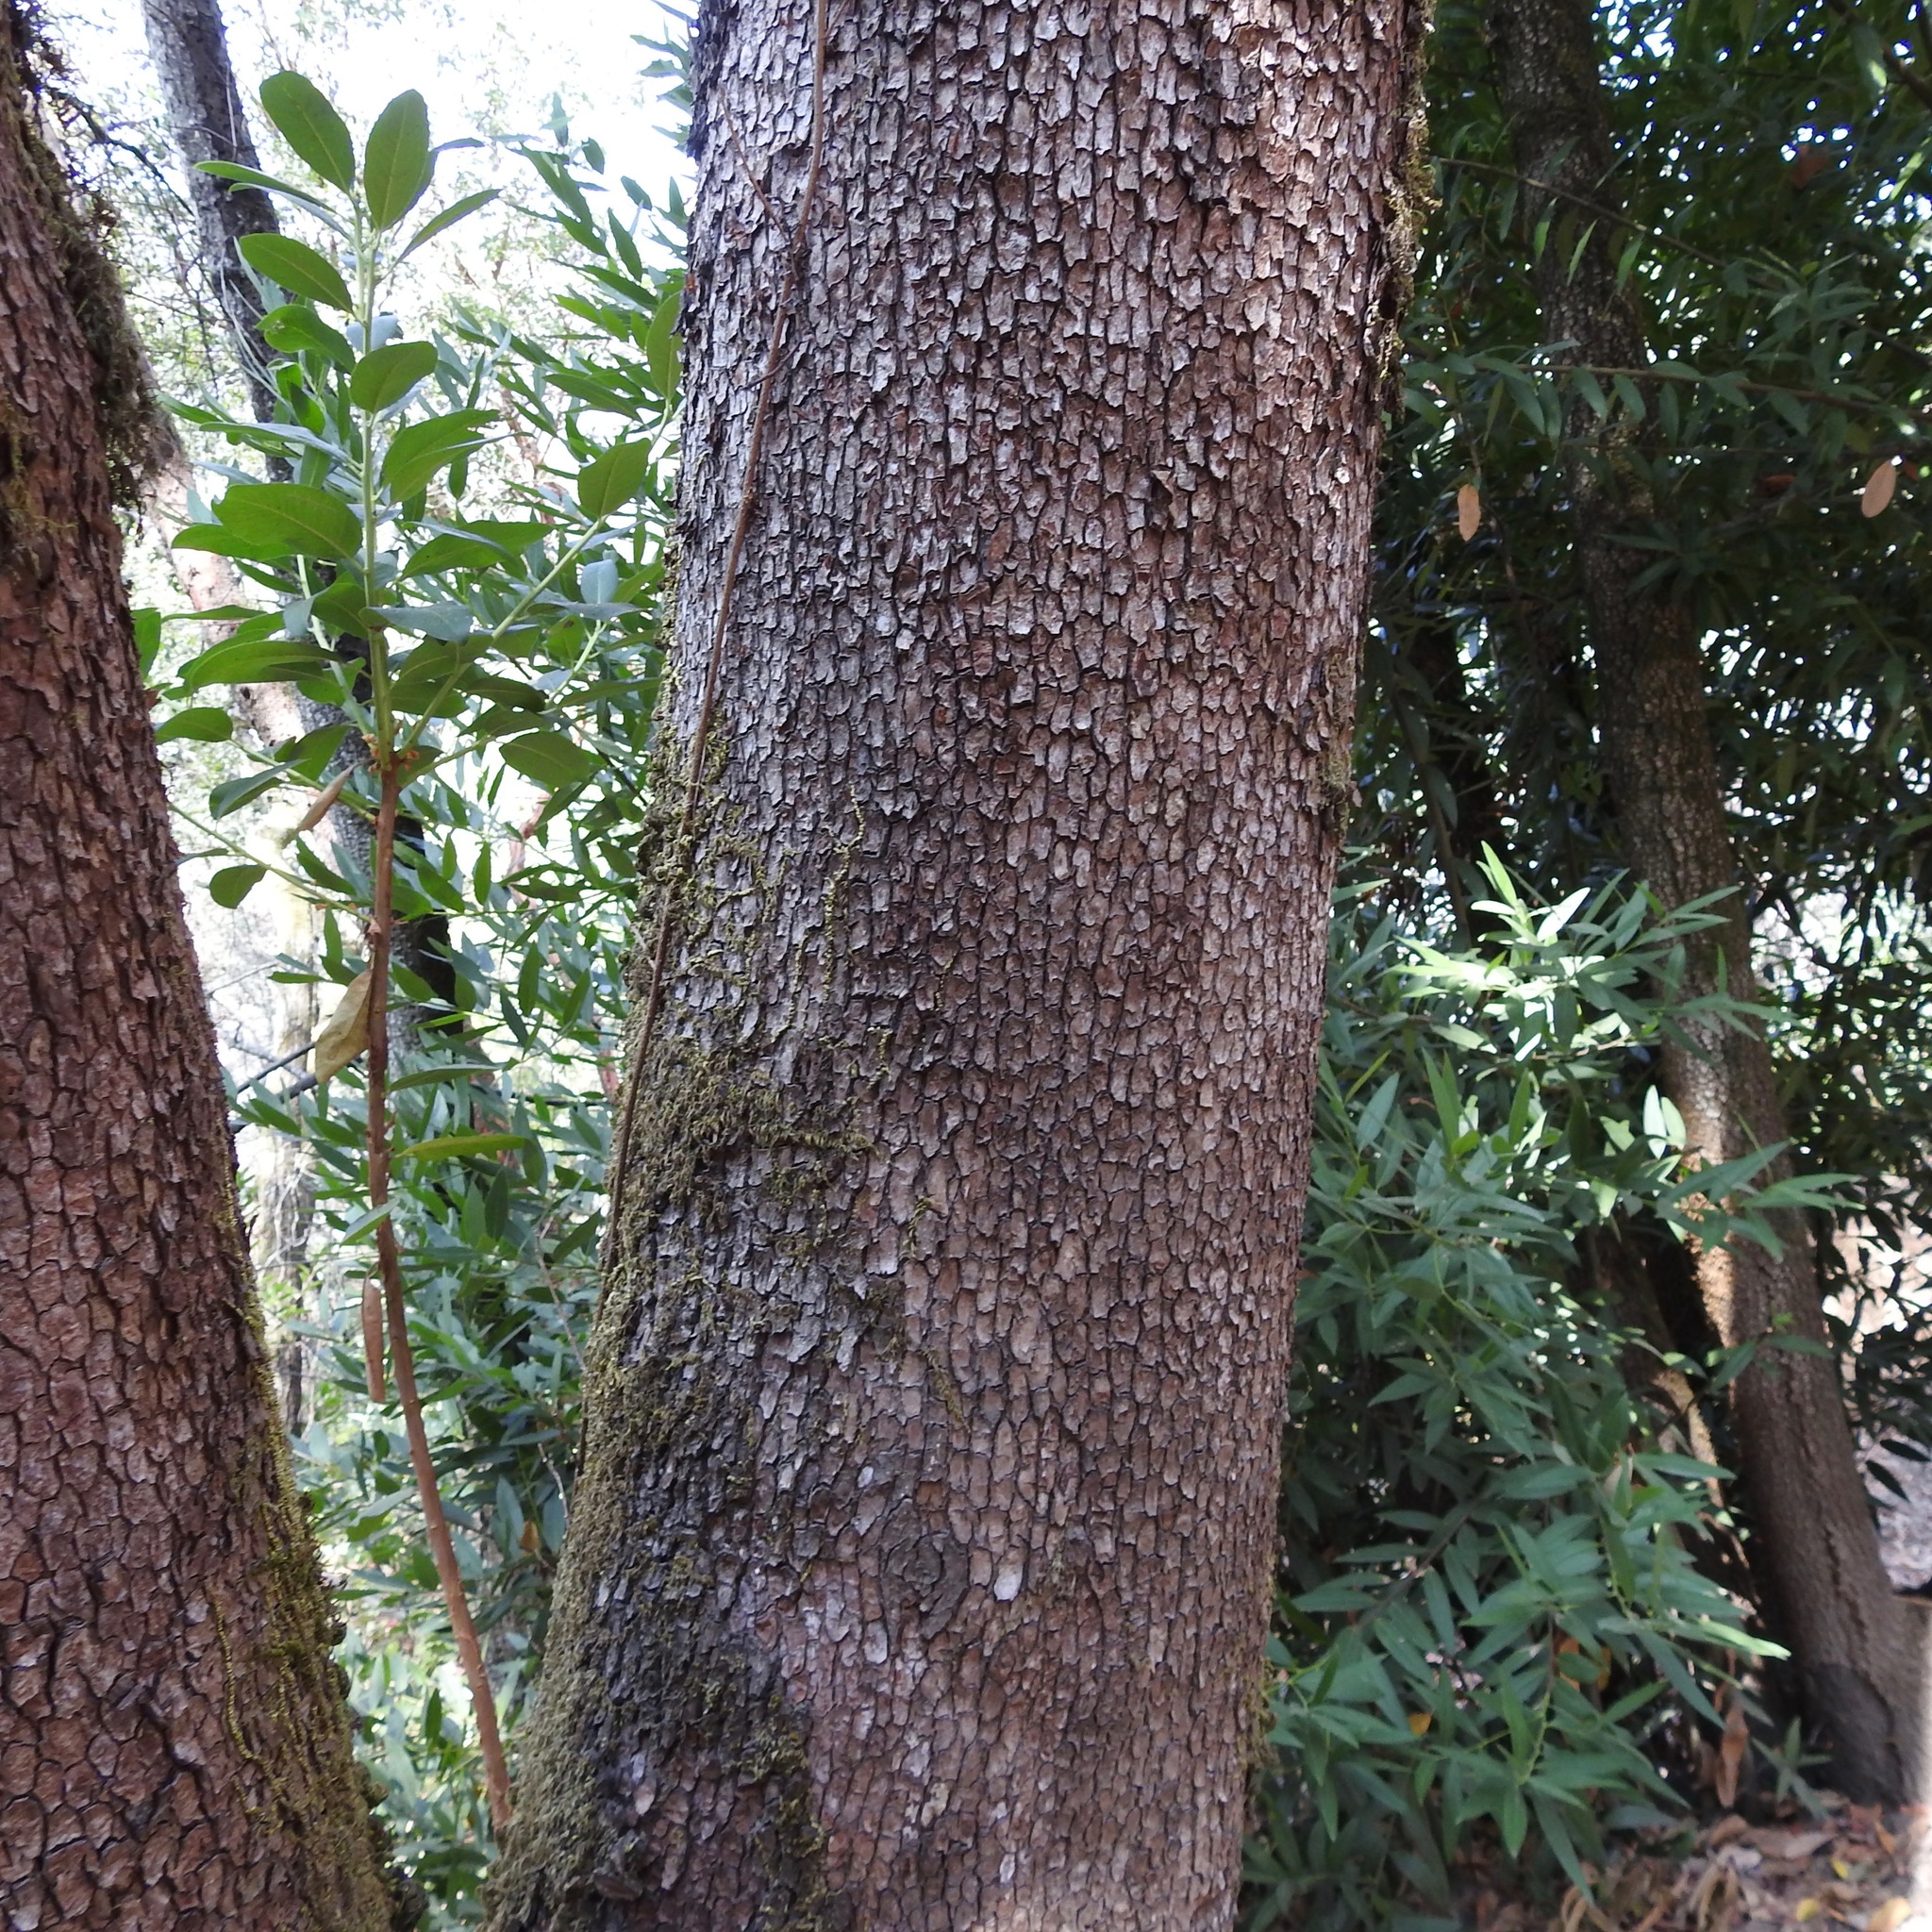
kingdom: Plantae
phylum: Tracheophyta
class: Magnoliopsida
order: Ericales
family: Ericaceae
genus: Arbutus
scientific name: Arbutus menziesii
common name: Pacific madrone
